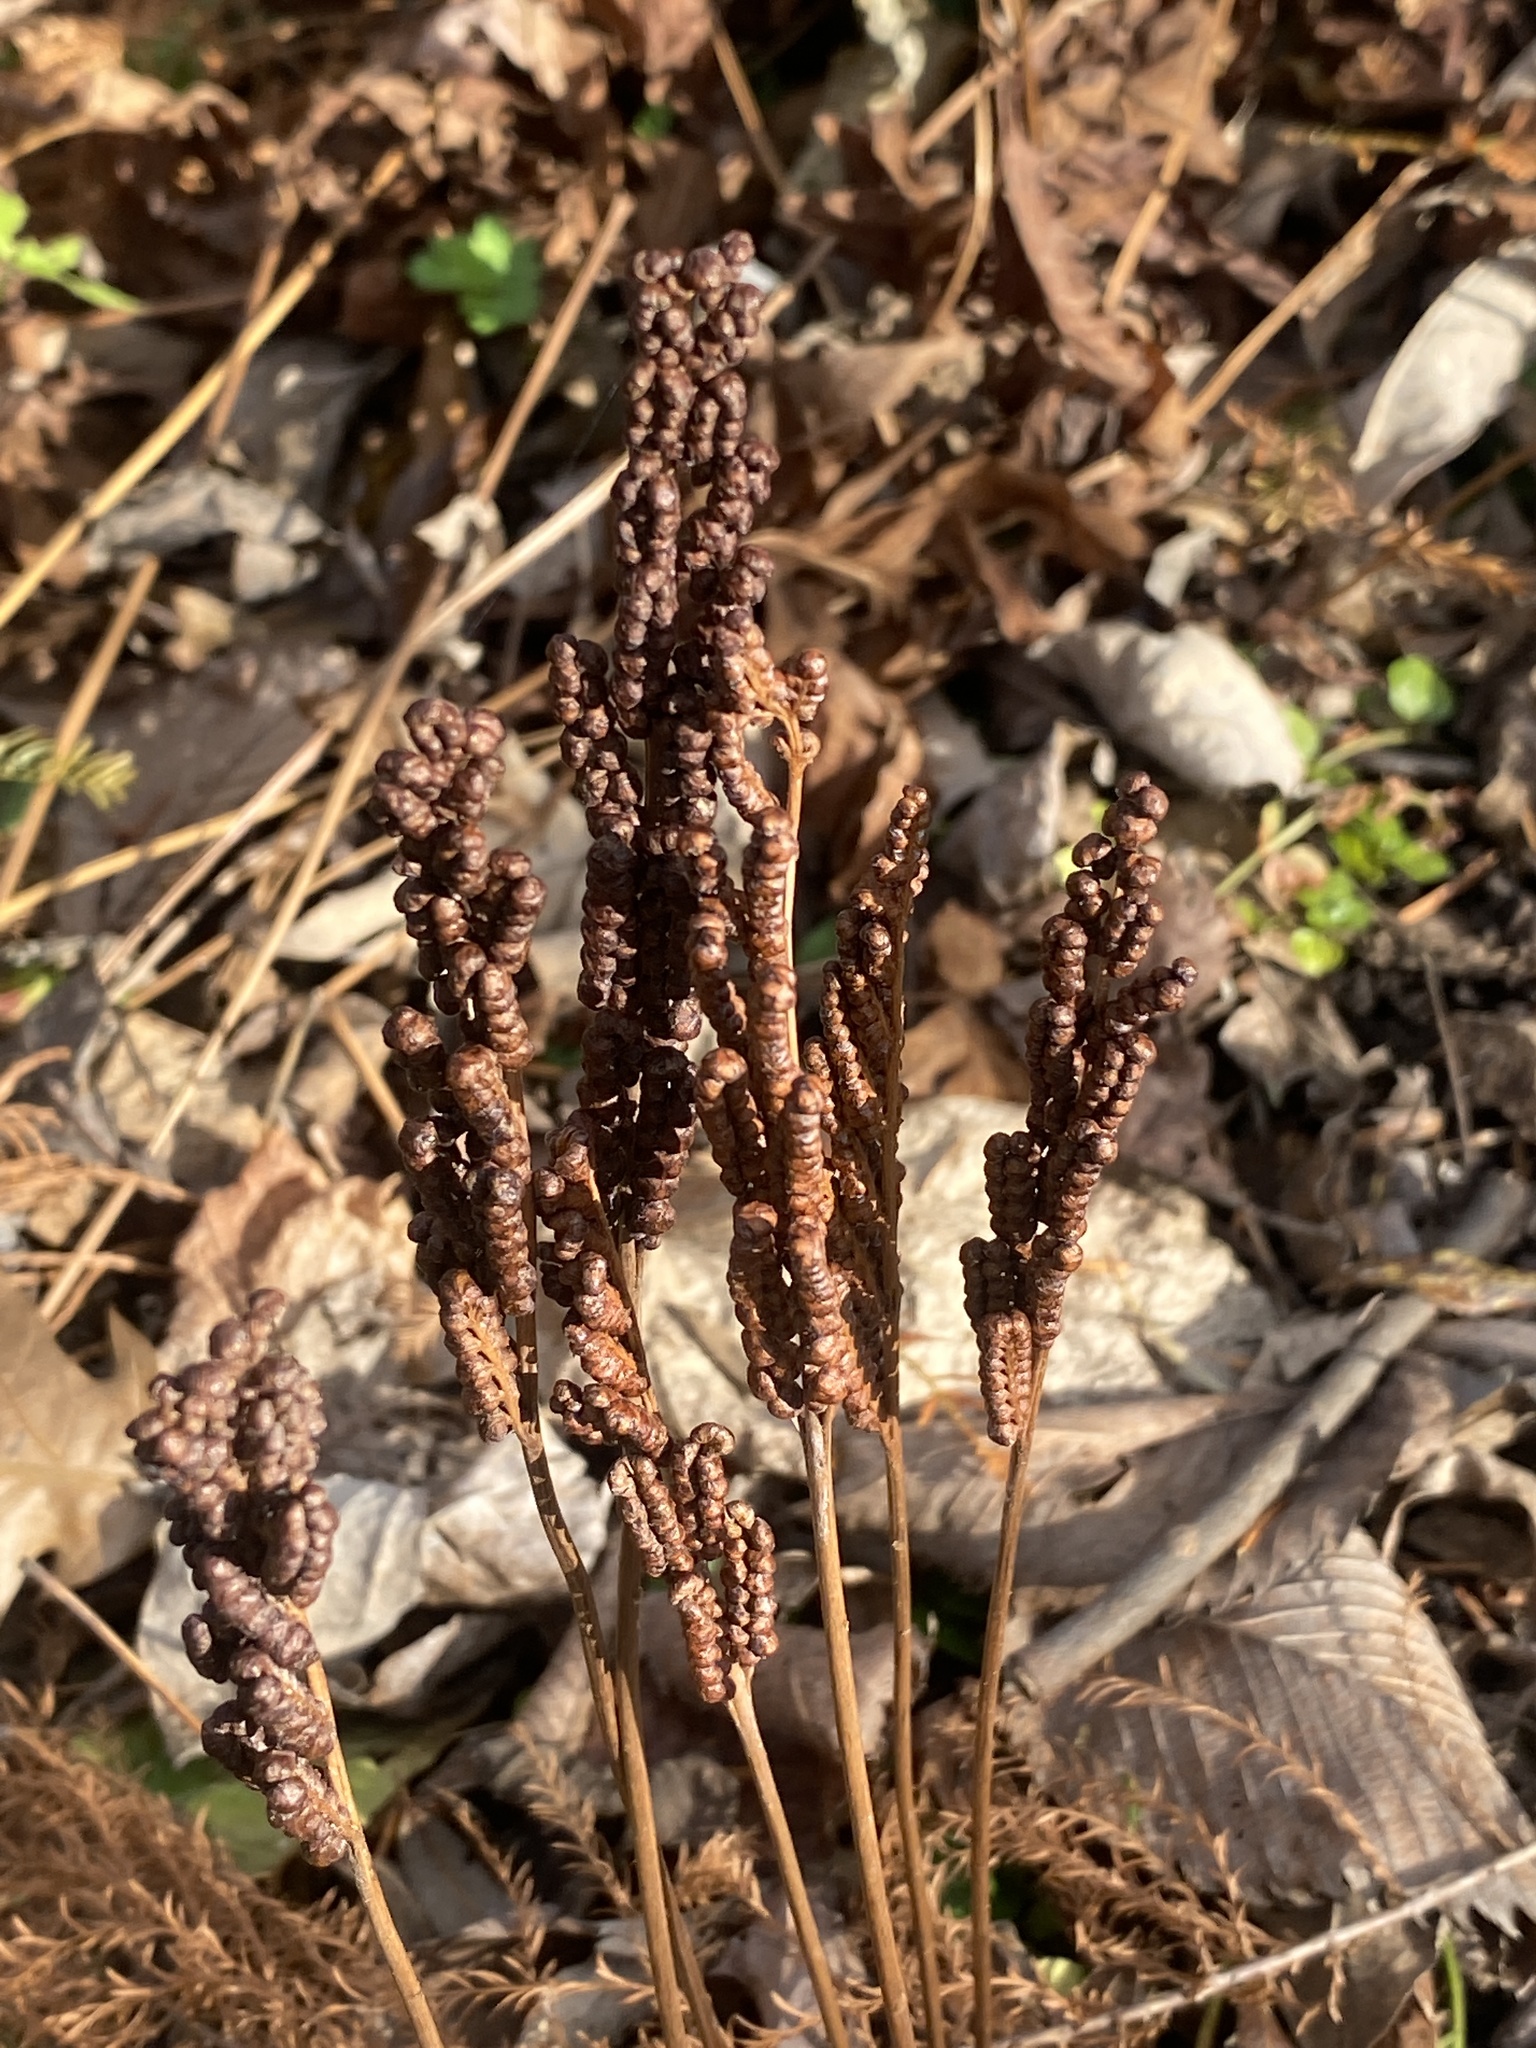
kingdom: Plantae
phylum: Tracheophyta
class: Polypodiopsida
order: Polypodiales
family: Onocleaceae
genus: Onoclea
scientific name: Onoclea sensibilis
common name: Sensitive fern
